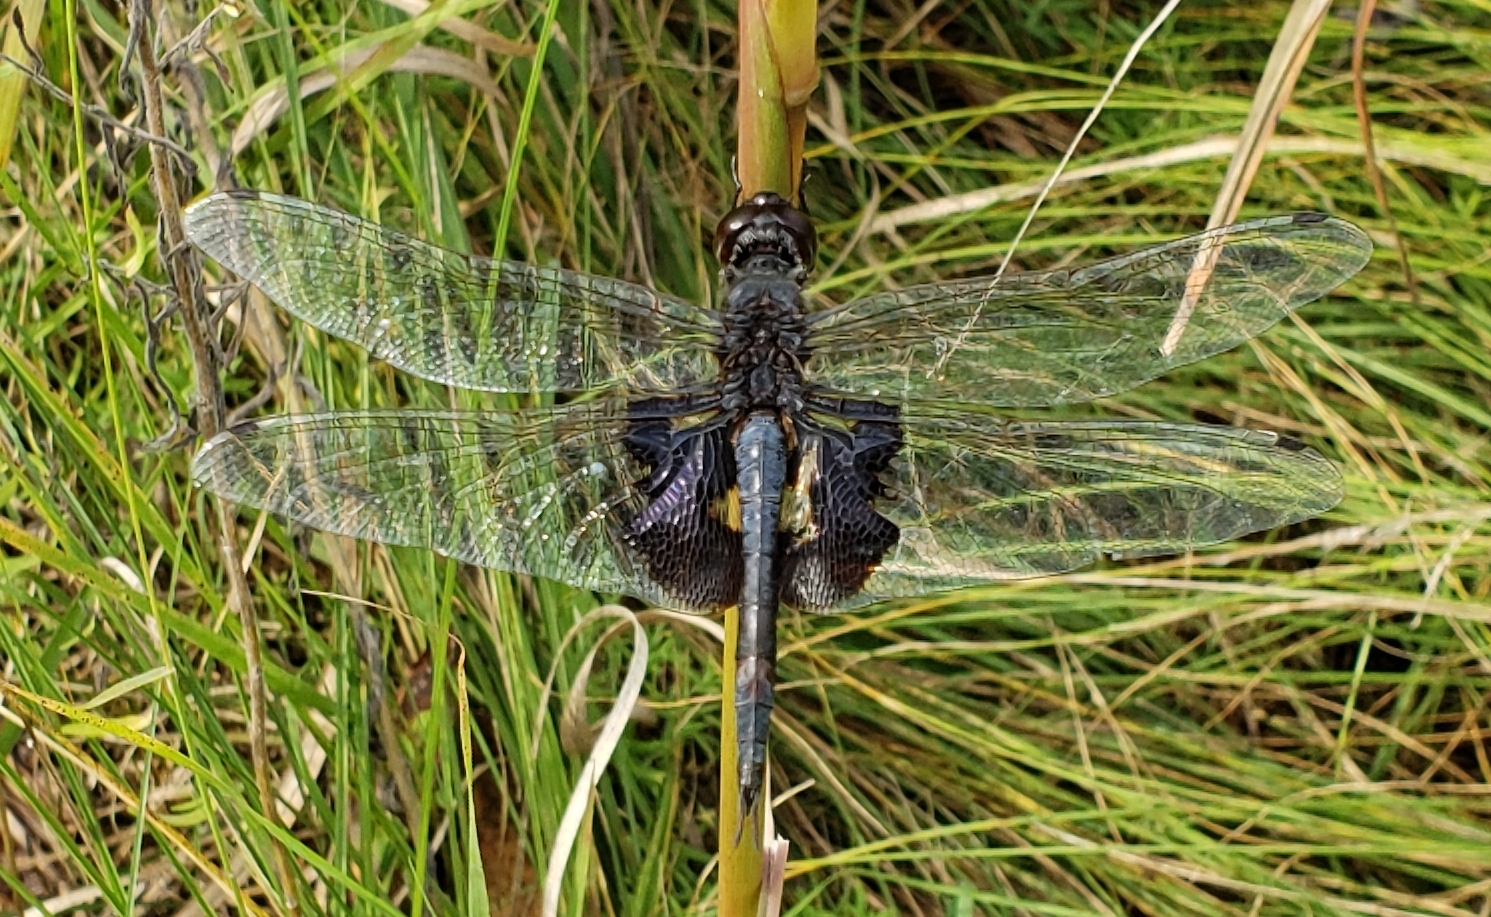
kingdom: Animalia
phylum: Arthropoda
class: Insecta
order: Odonata
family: Libellulidae
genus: Tramea
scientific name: Tramea lacerata
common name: Black saddlebags
